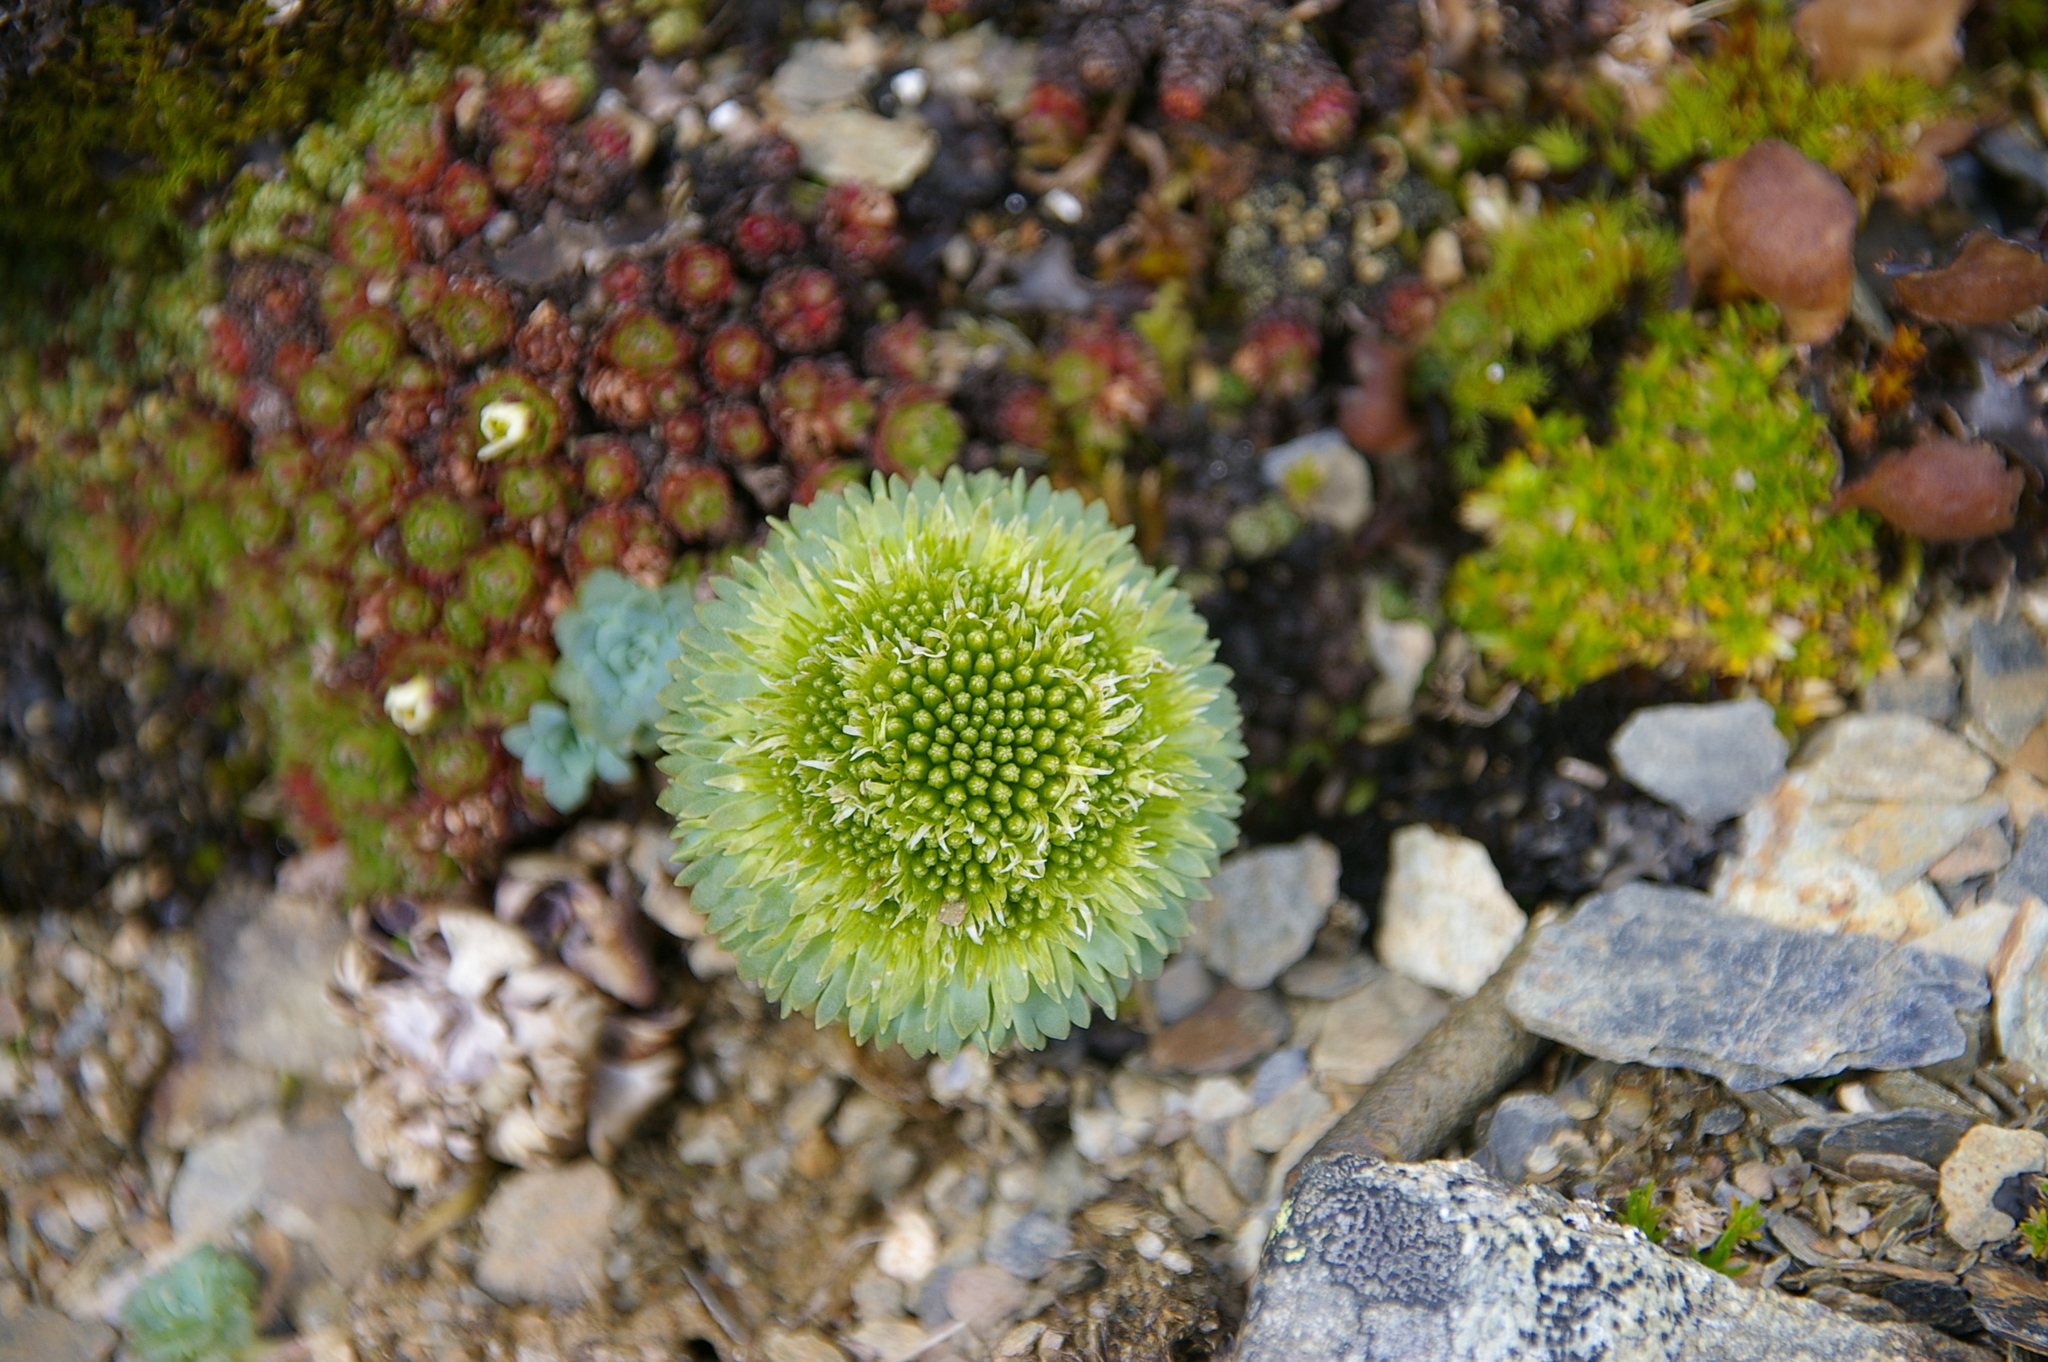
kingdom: Plantae
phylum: Tracheophyta
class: Magnoliopsida
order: Asterales
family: Calyceraceae
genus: Moschopsis
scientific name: Moschopsis rosulata
